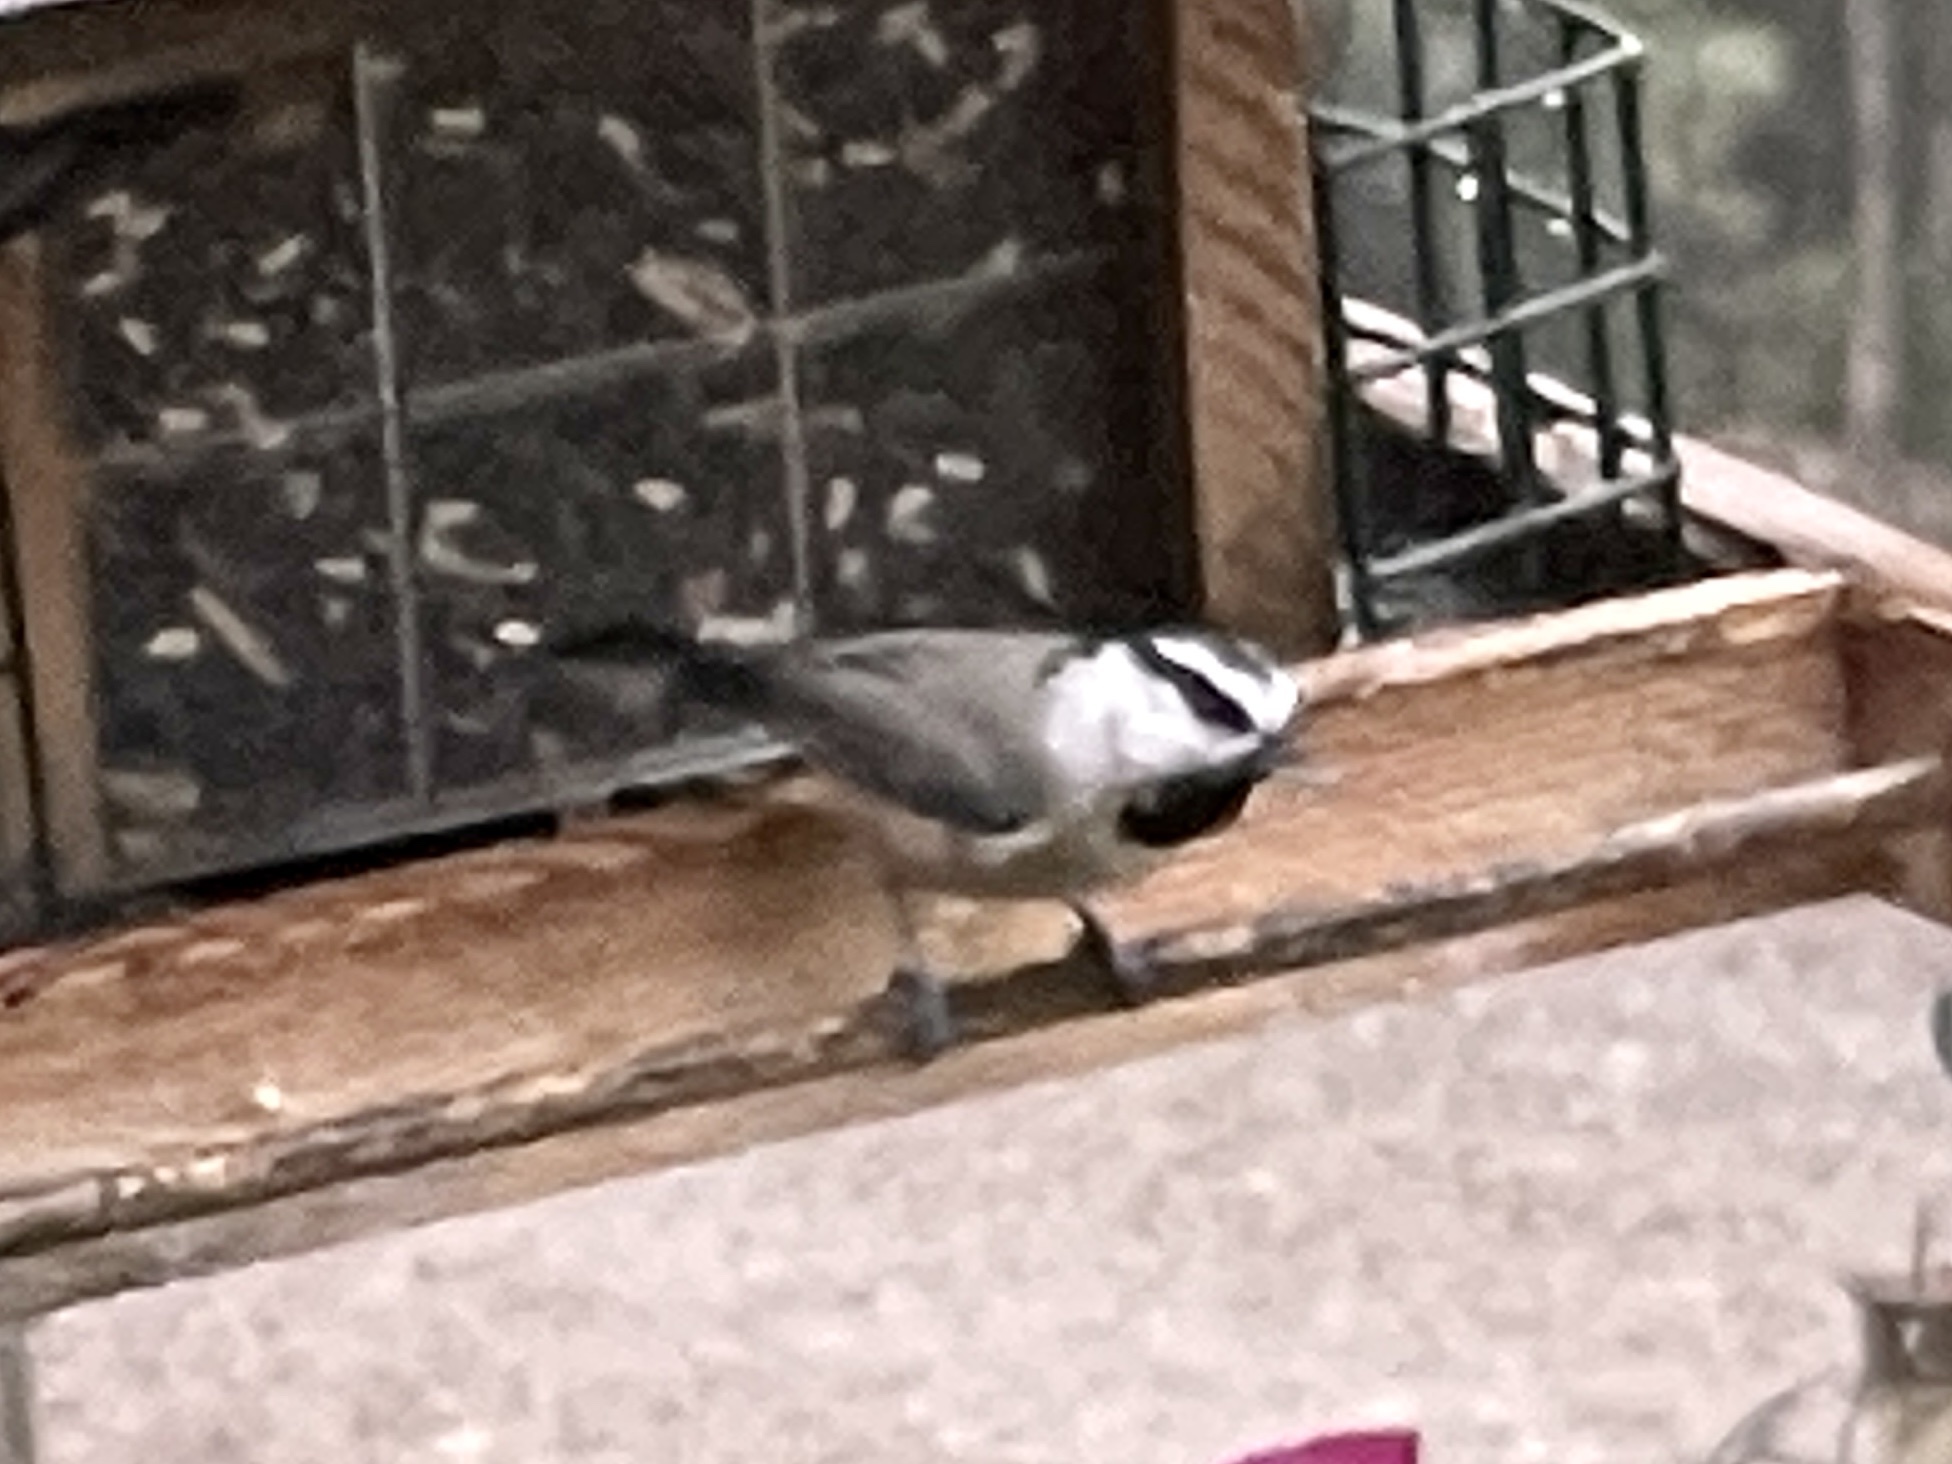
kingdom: Animalia
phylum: Chordata
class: Aves
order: Passeriformes
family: Paridae
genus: Poecile
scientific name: Poecile gambeli
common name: Mountain chickadee
